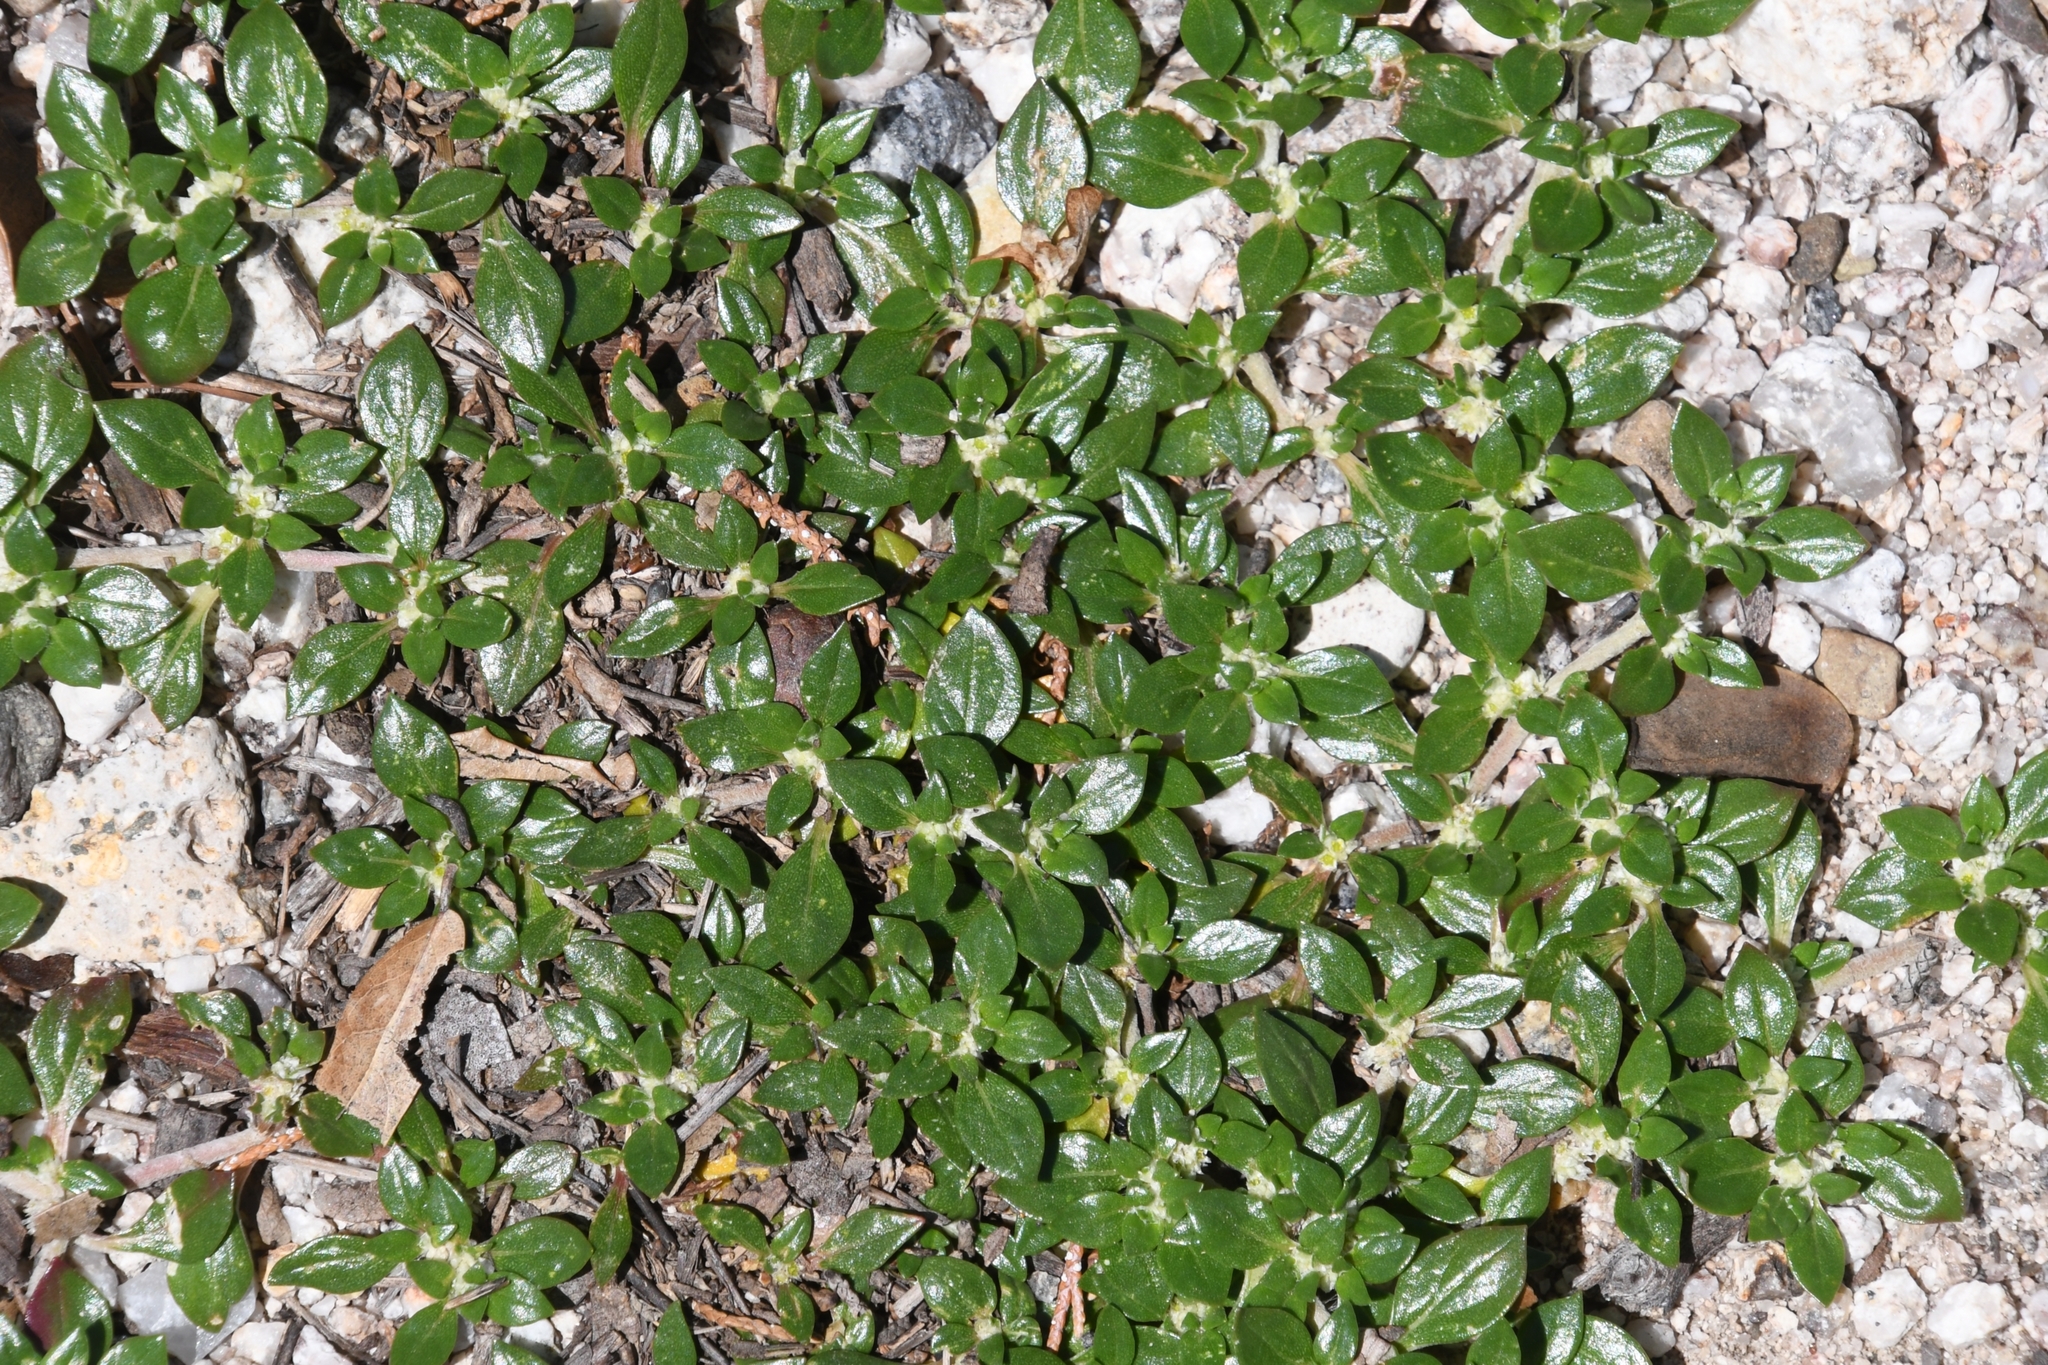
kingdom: Plantae
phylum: Tracheophyta
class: Magnoliopsida
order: Caryophyllales
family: Amaranthaceae
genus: Guilleminea
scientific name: Guilleminea densa
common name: Small matweed
